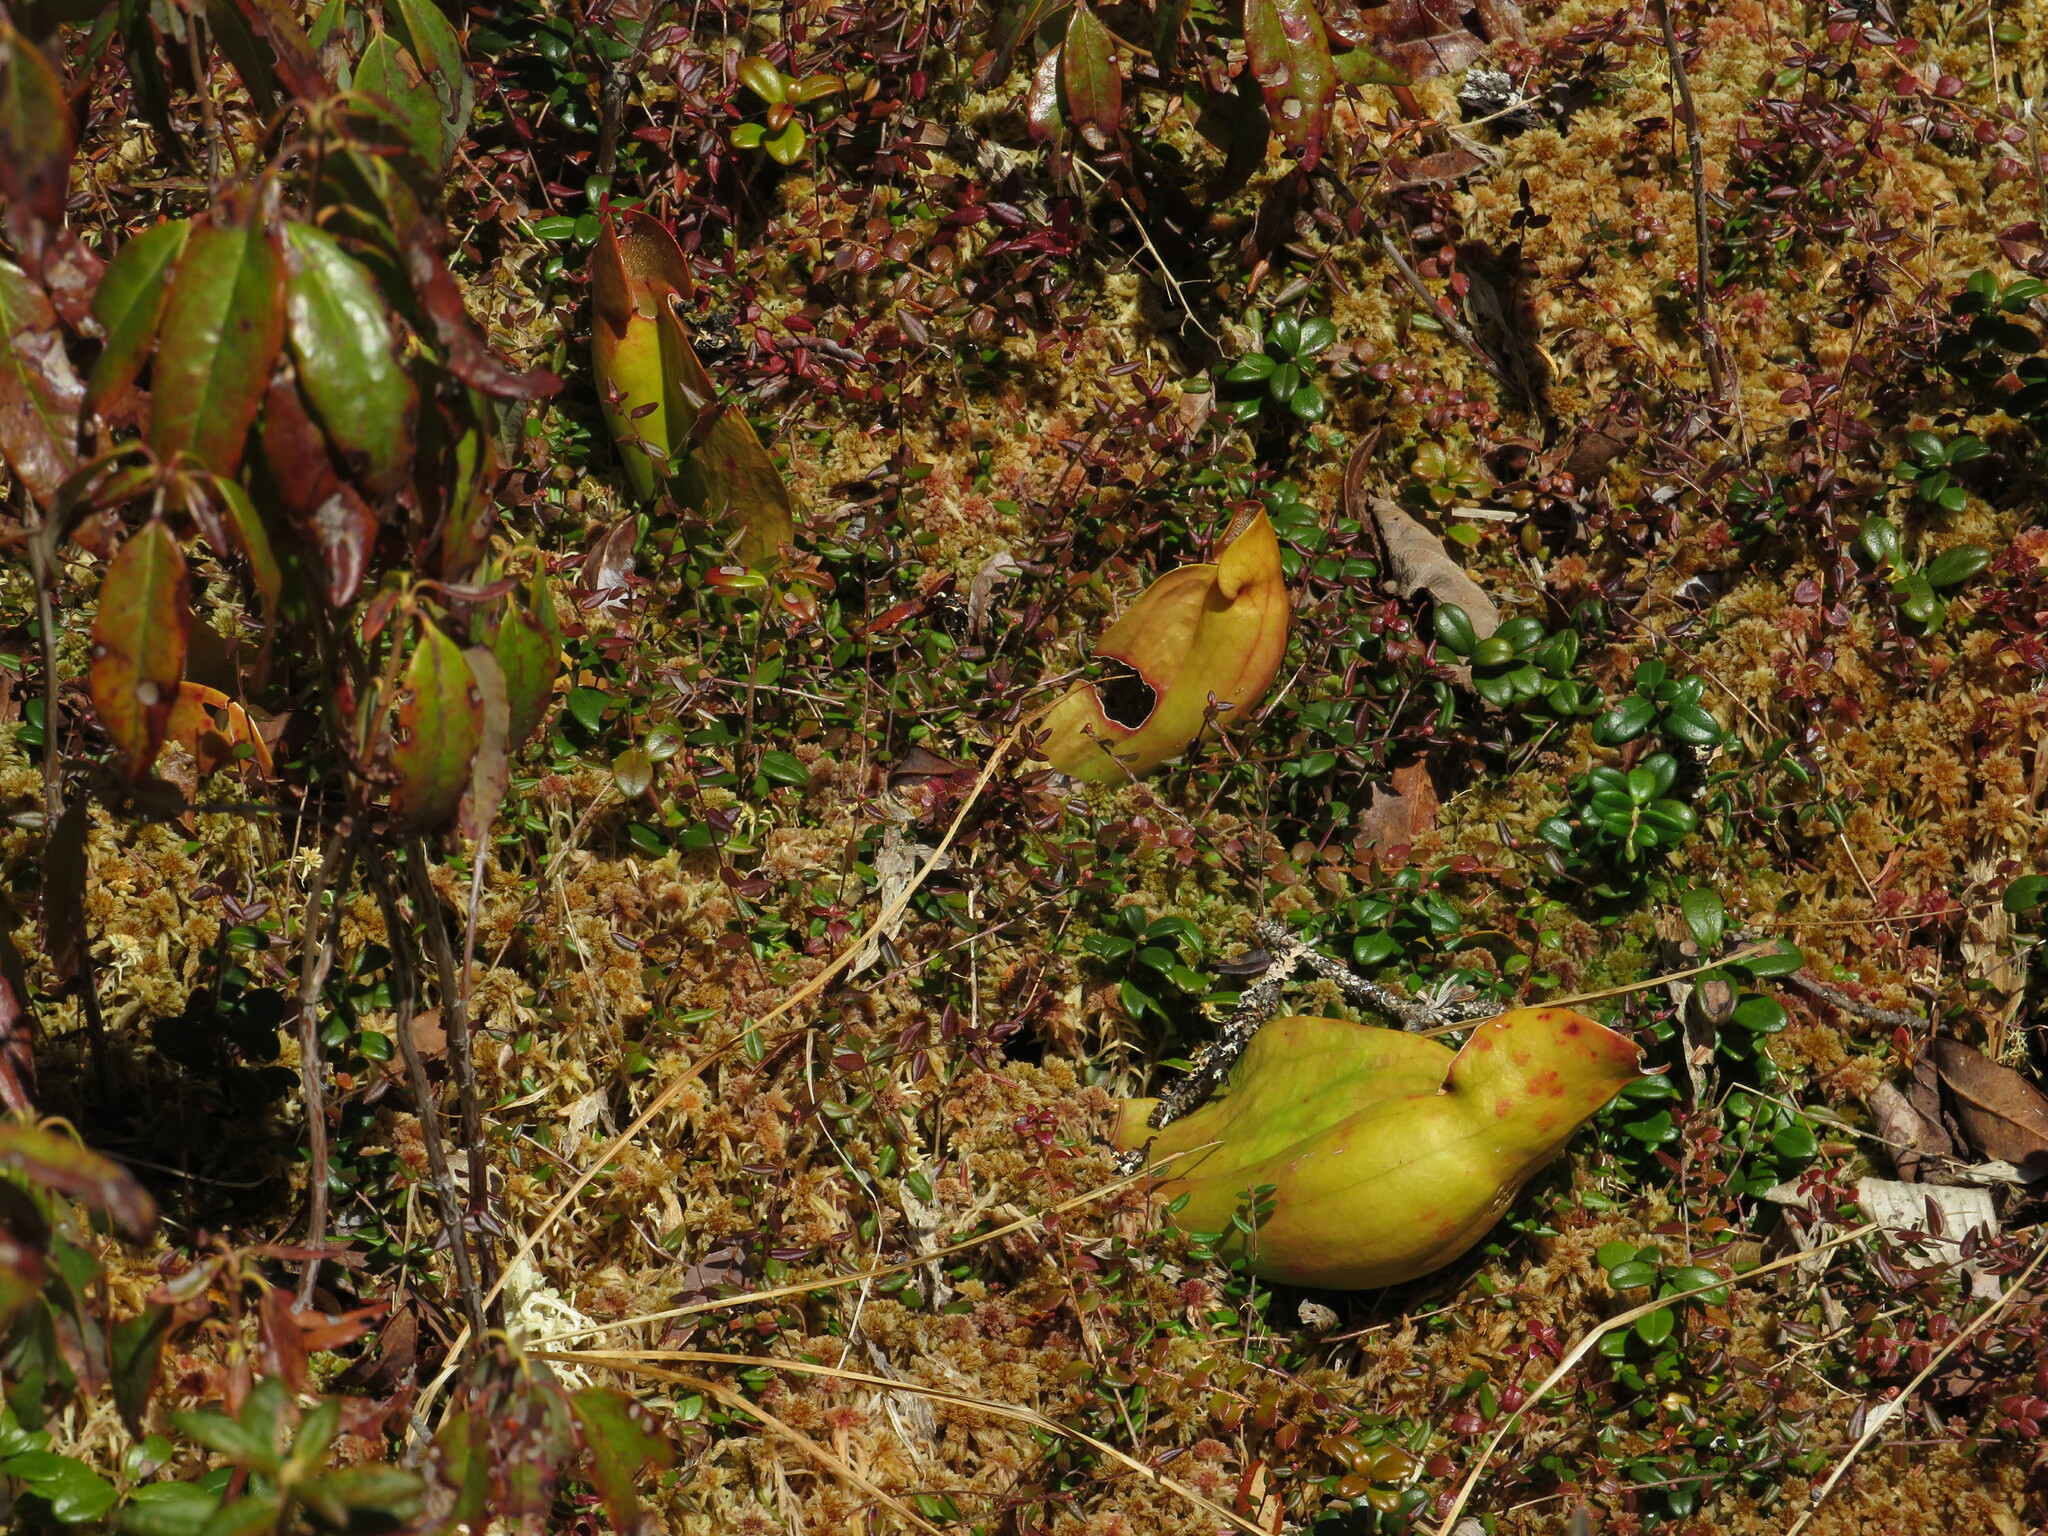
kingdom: Plantae
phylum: Tracheophyta
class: Magnoliopsida
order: Ericales
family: Sarraceniaceae
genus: Sarracenia
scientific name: Sarracenia purpurea
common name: Pitcherplant
